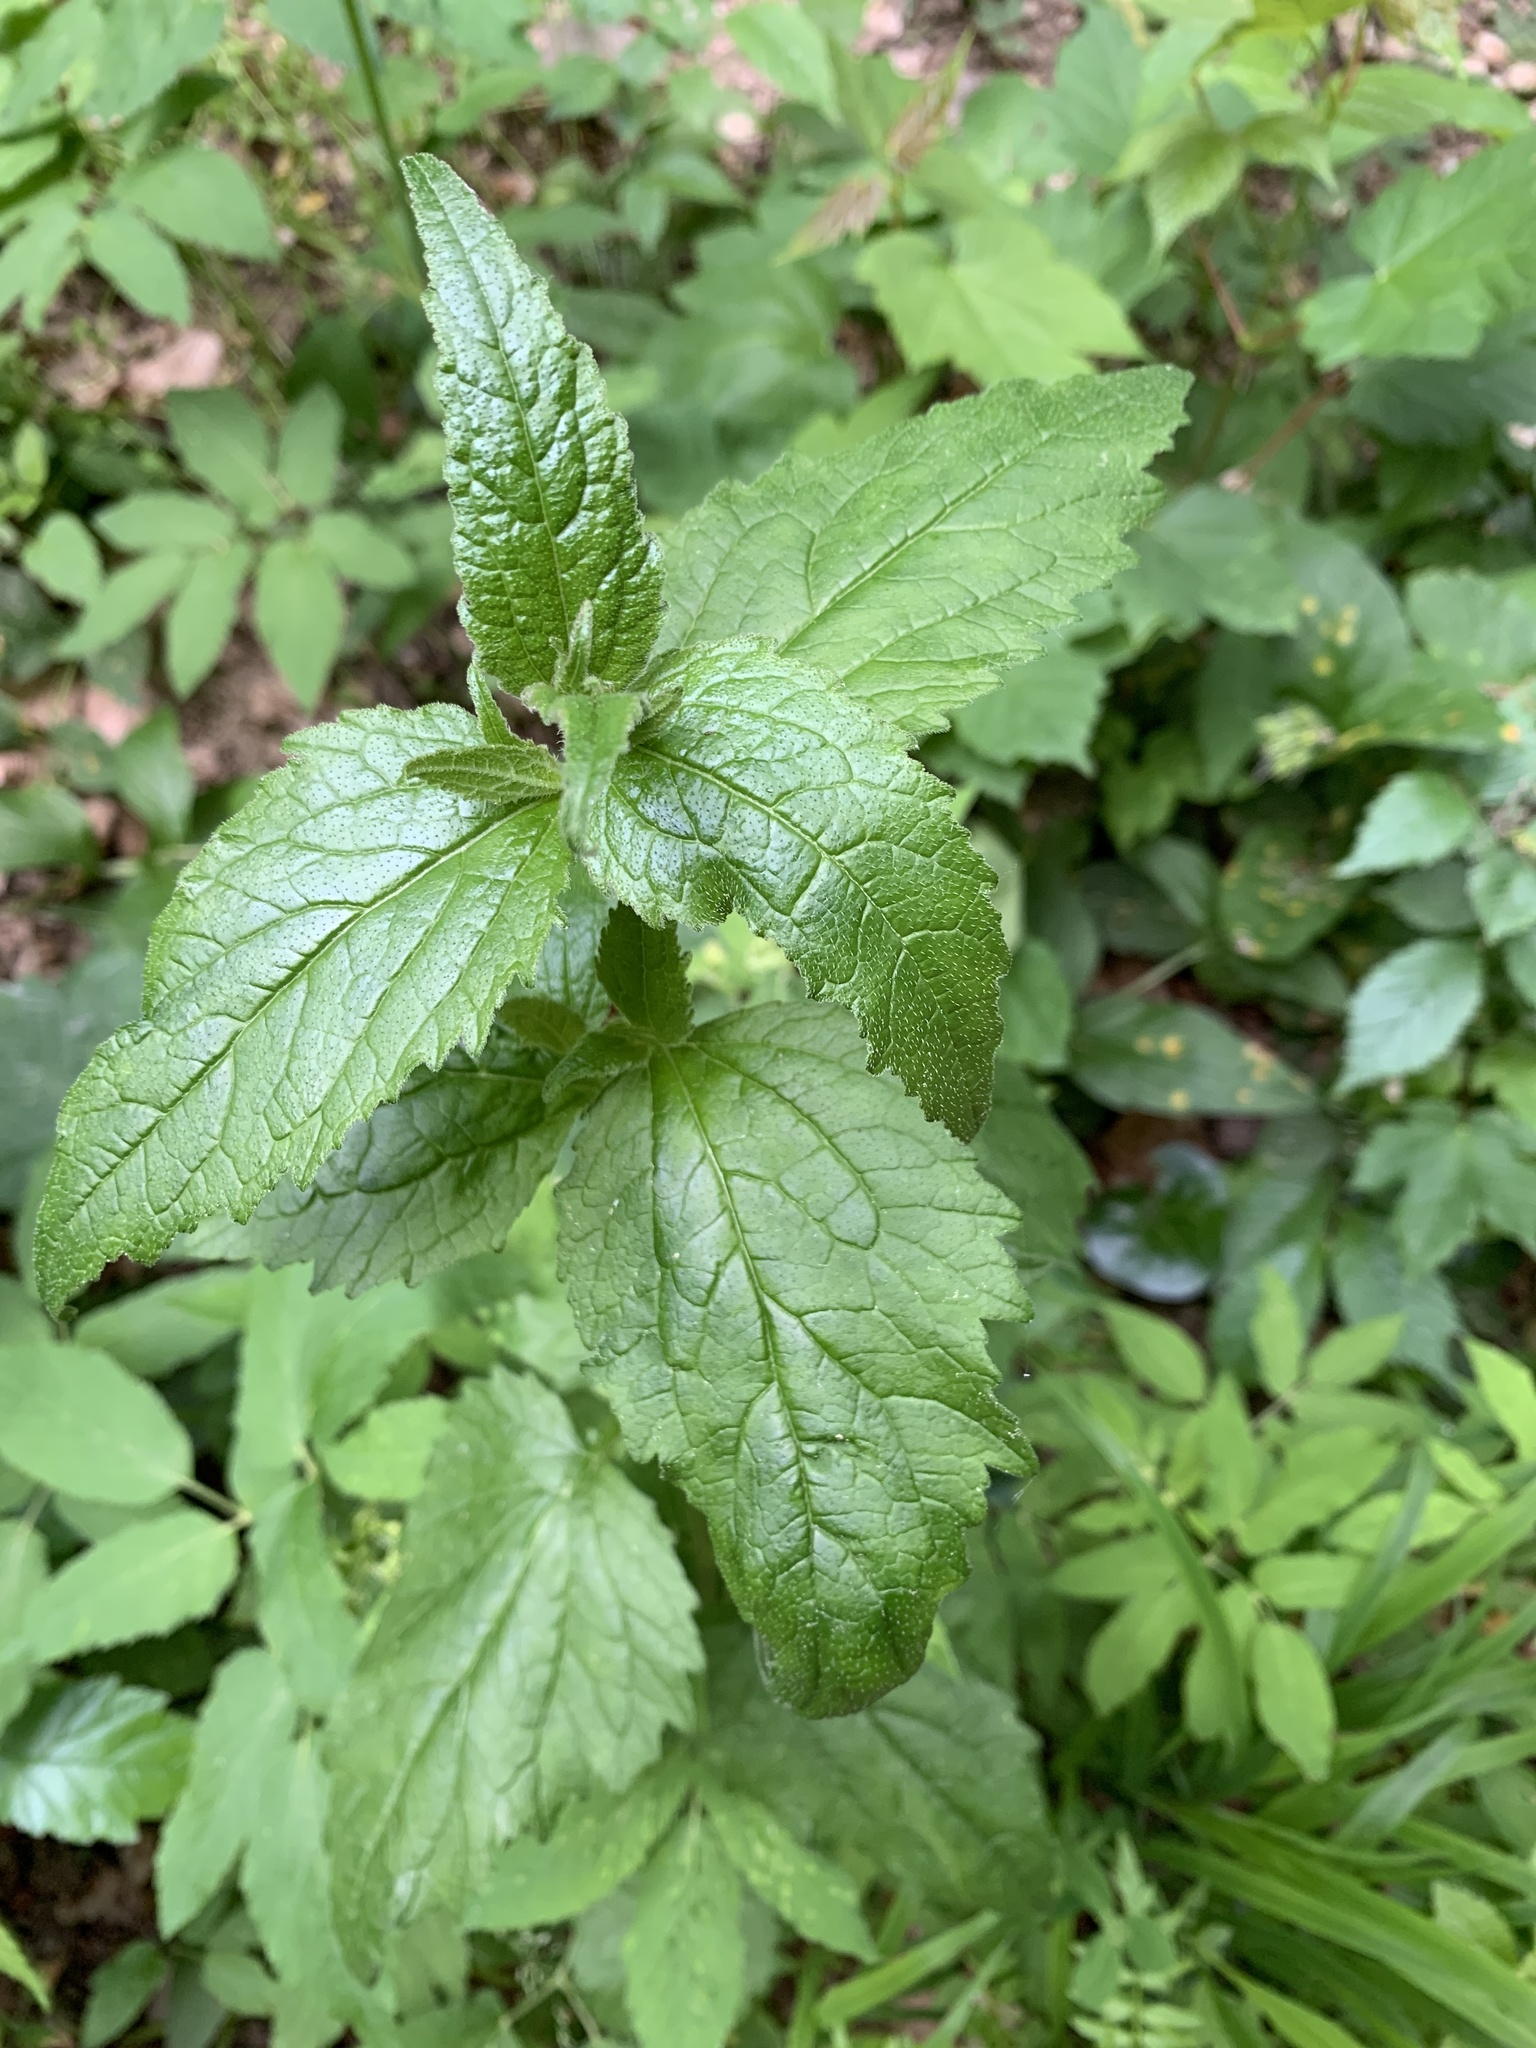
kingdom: Plantae
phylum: Tracheophyta
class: Magnoliopsida
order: Asterales
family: Campanulaceae
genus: Campanula
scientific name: Campanula trachelium
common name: Nettle-leaved bellflower
